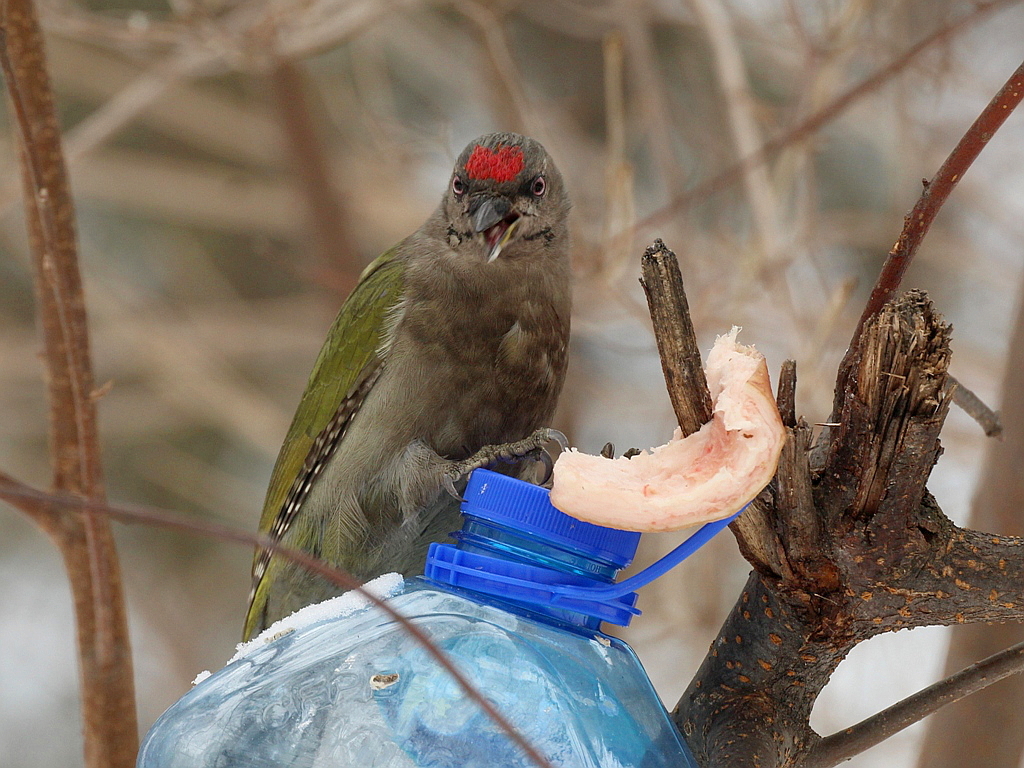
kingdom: Animalia
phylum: Chordata
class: Aves
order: Piciformes
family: Picidae
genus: Picus
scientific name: Picus canus
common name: Grey-headed woodpecker
